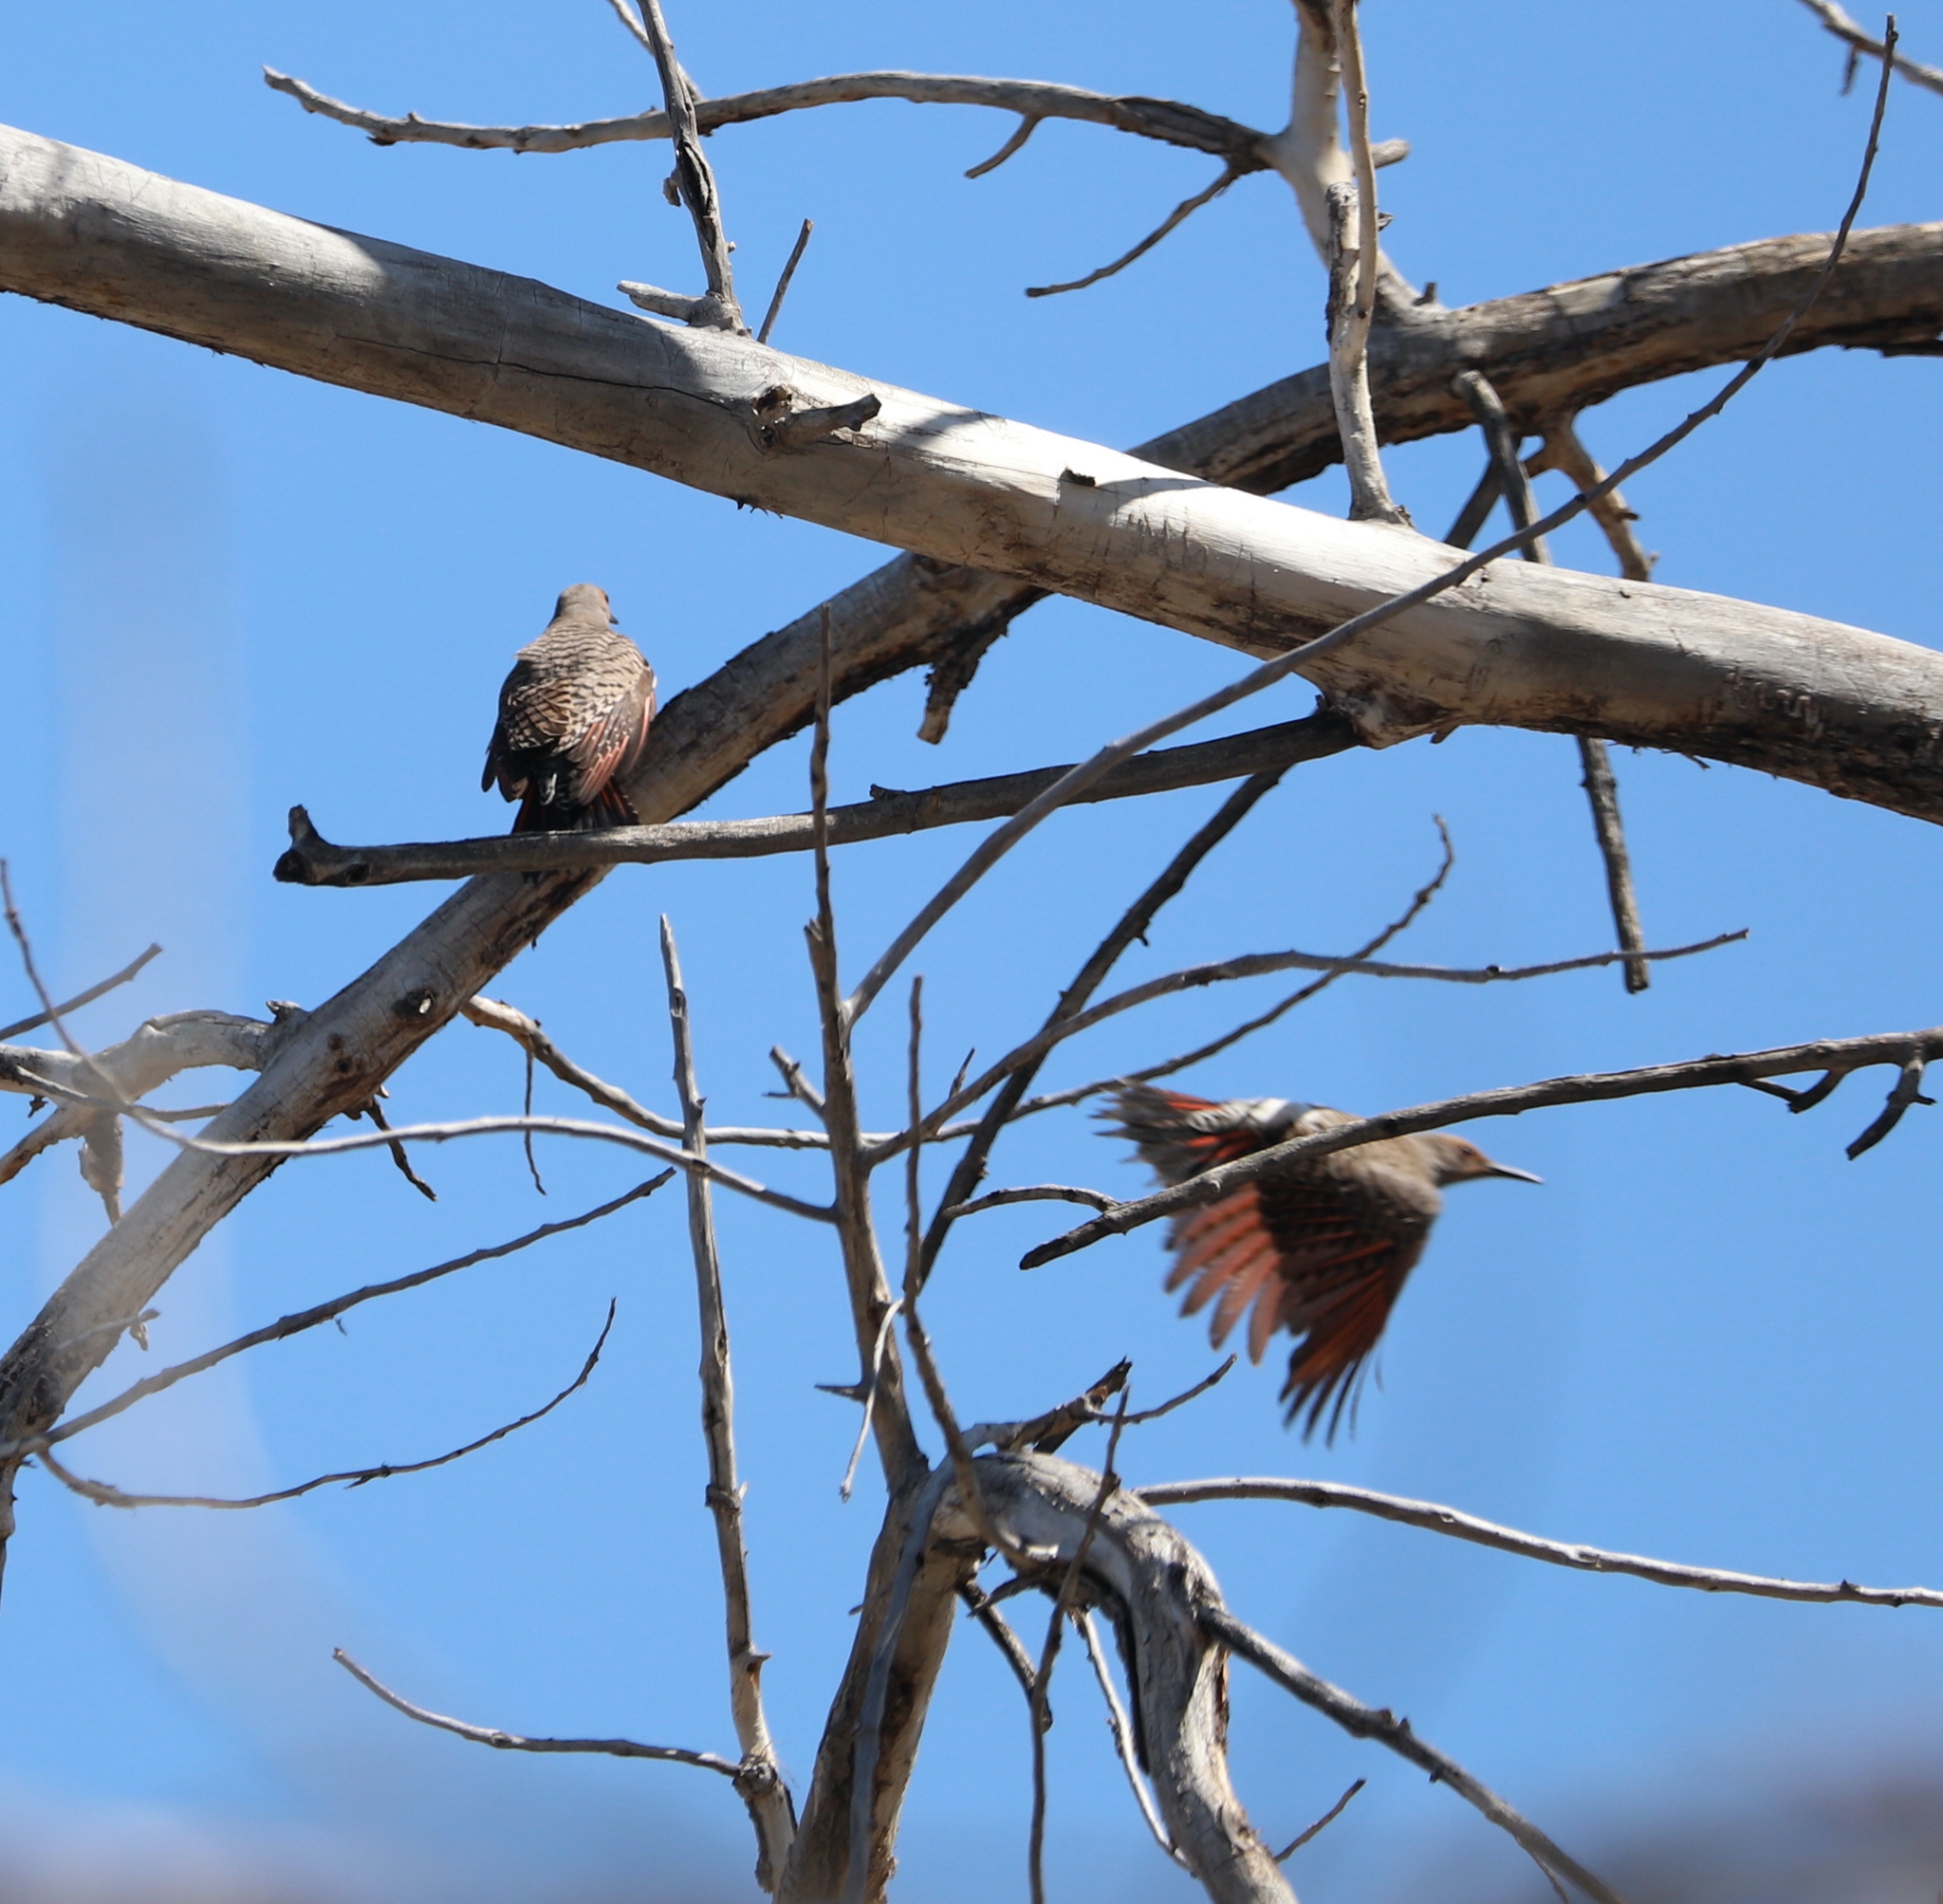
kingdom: Animalia
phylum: Chordata
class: Aves
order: Piciformes
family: Picidae
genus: Colaptes
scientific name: Colaptes auratus
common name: Northern flicker
